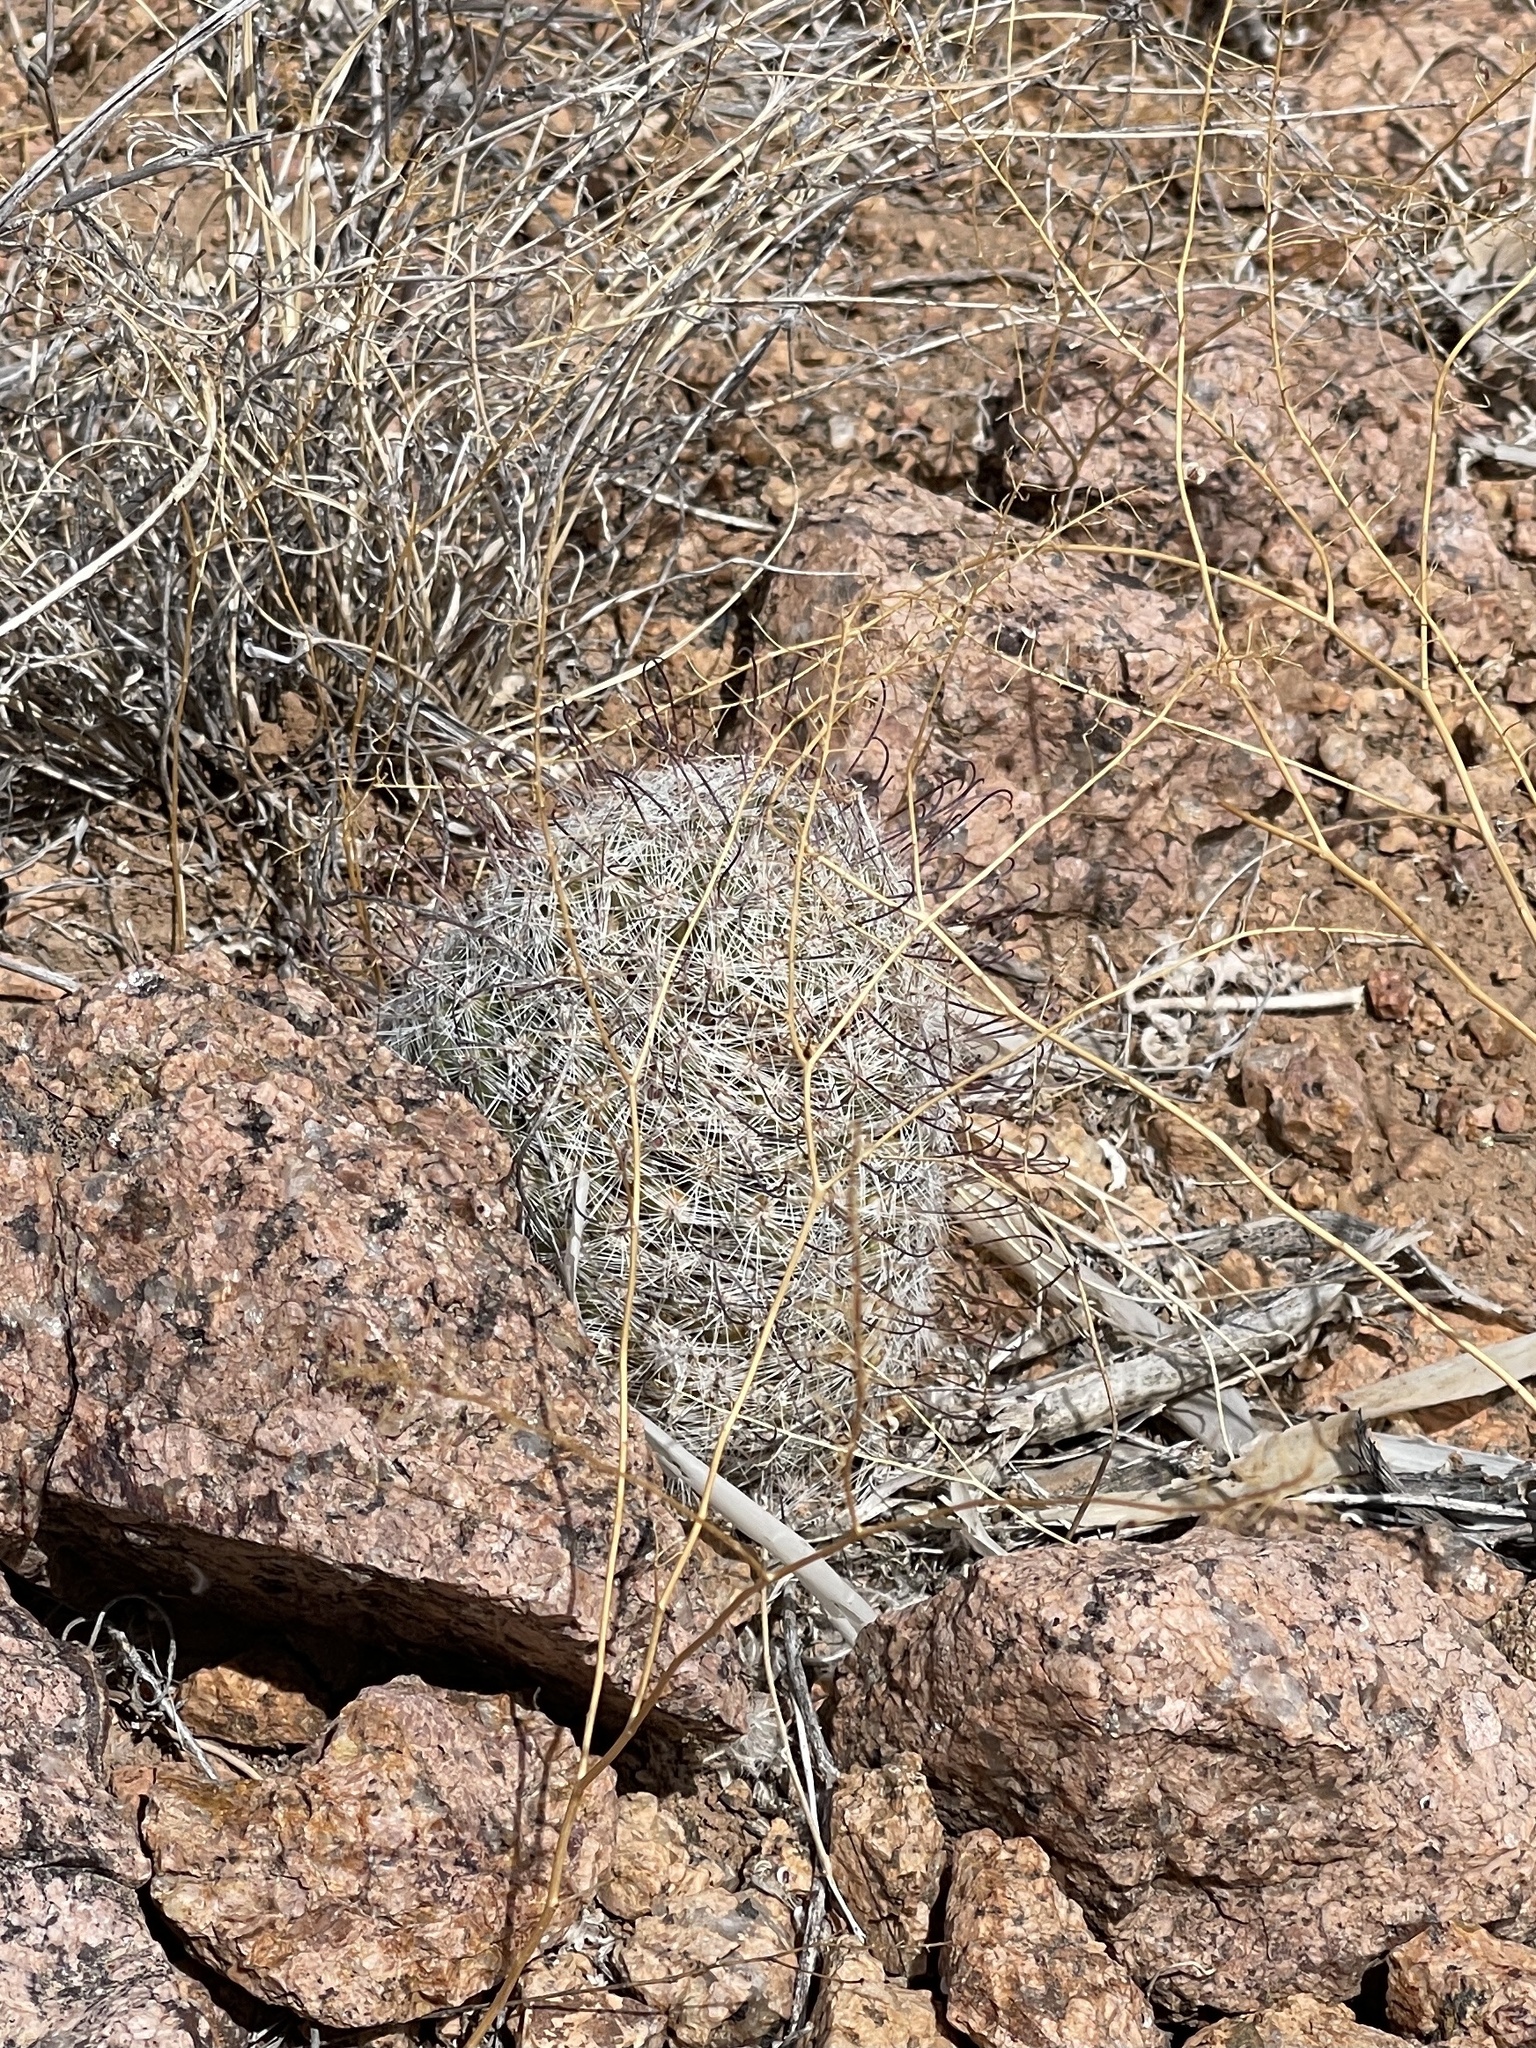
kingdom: Plantae
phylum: Tracheophyta
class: Magnoliopsida
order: Caryophyllales
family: Cactaceae
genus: Cochemiea
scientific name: Cochemiea grahamii
